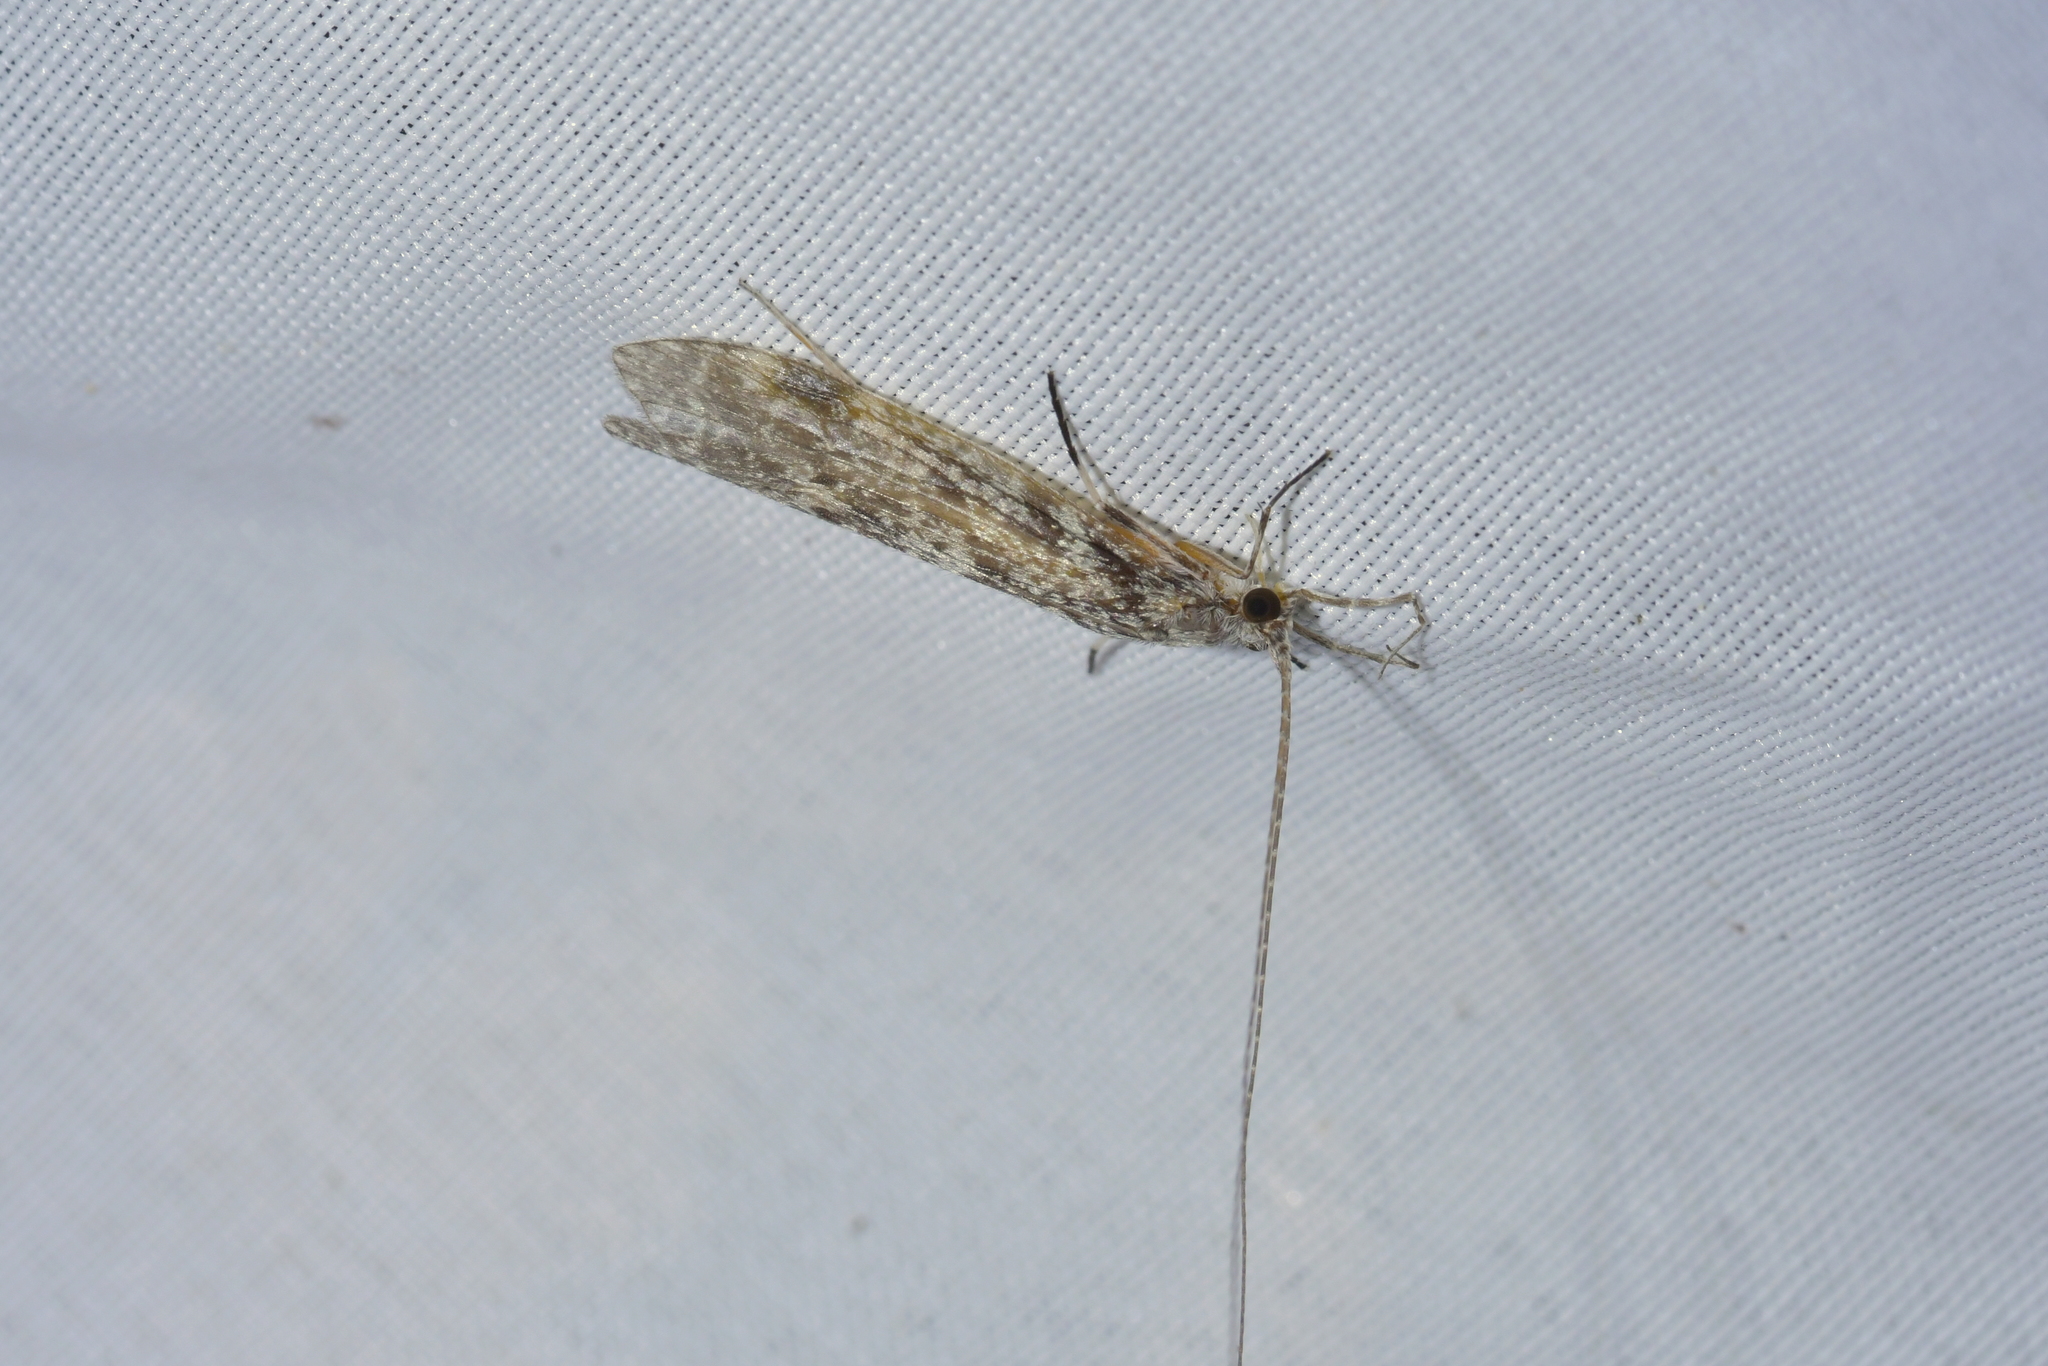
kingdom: Animalia
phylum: Arthropoda
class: Insecta
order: Trichoptera
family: Leptoceridae
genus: Hudsonema
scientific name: Hudsonema amabile
